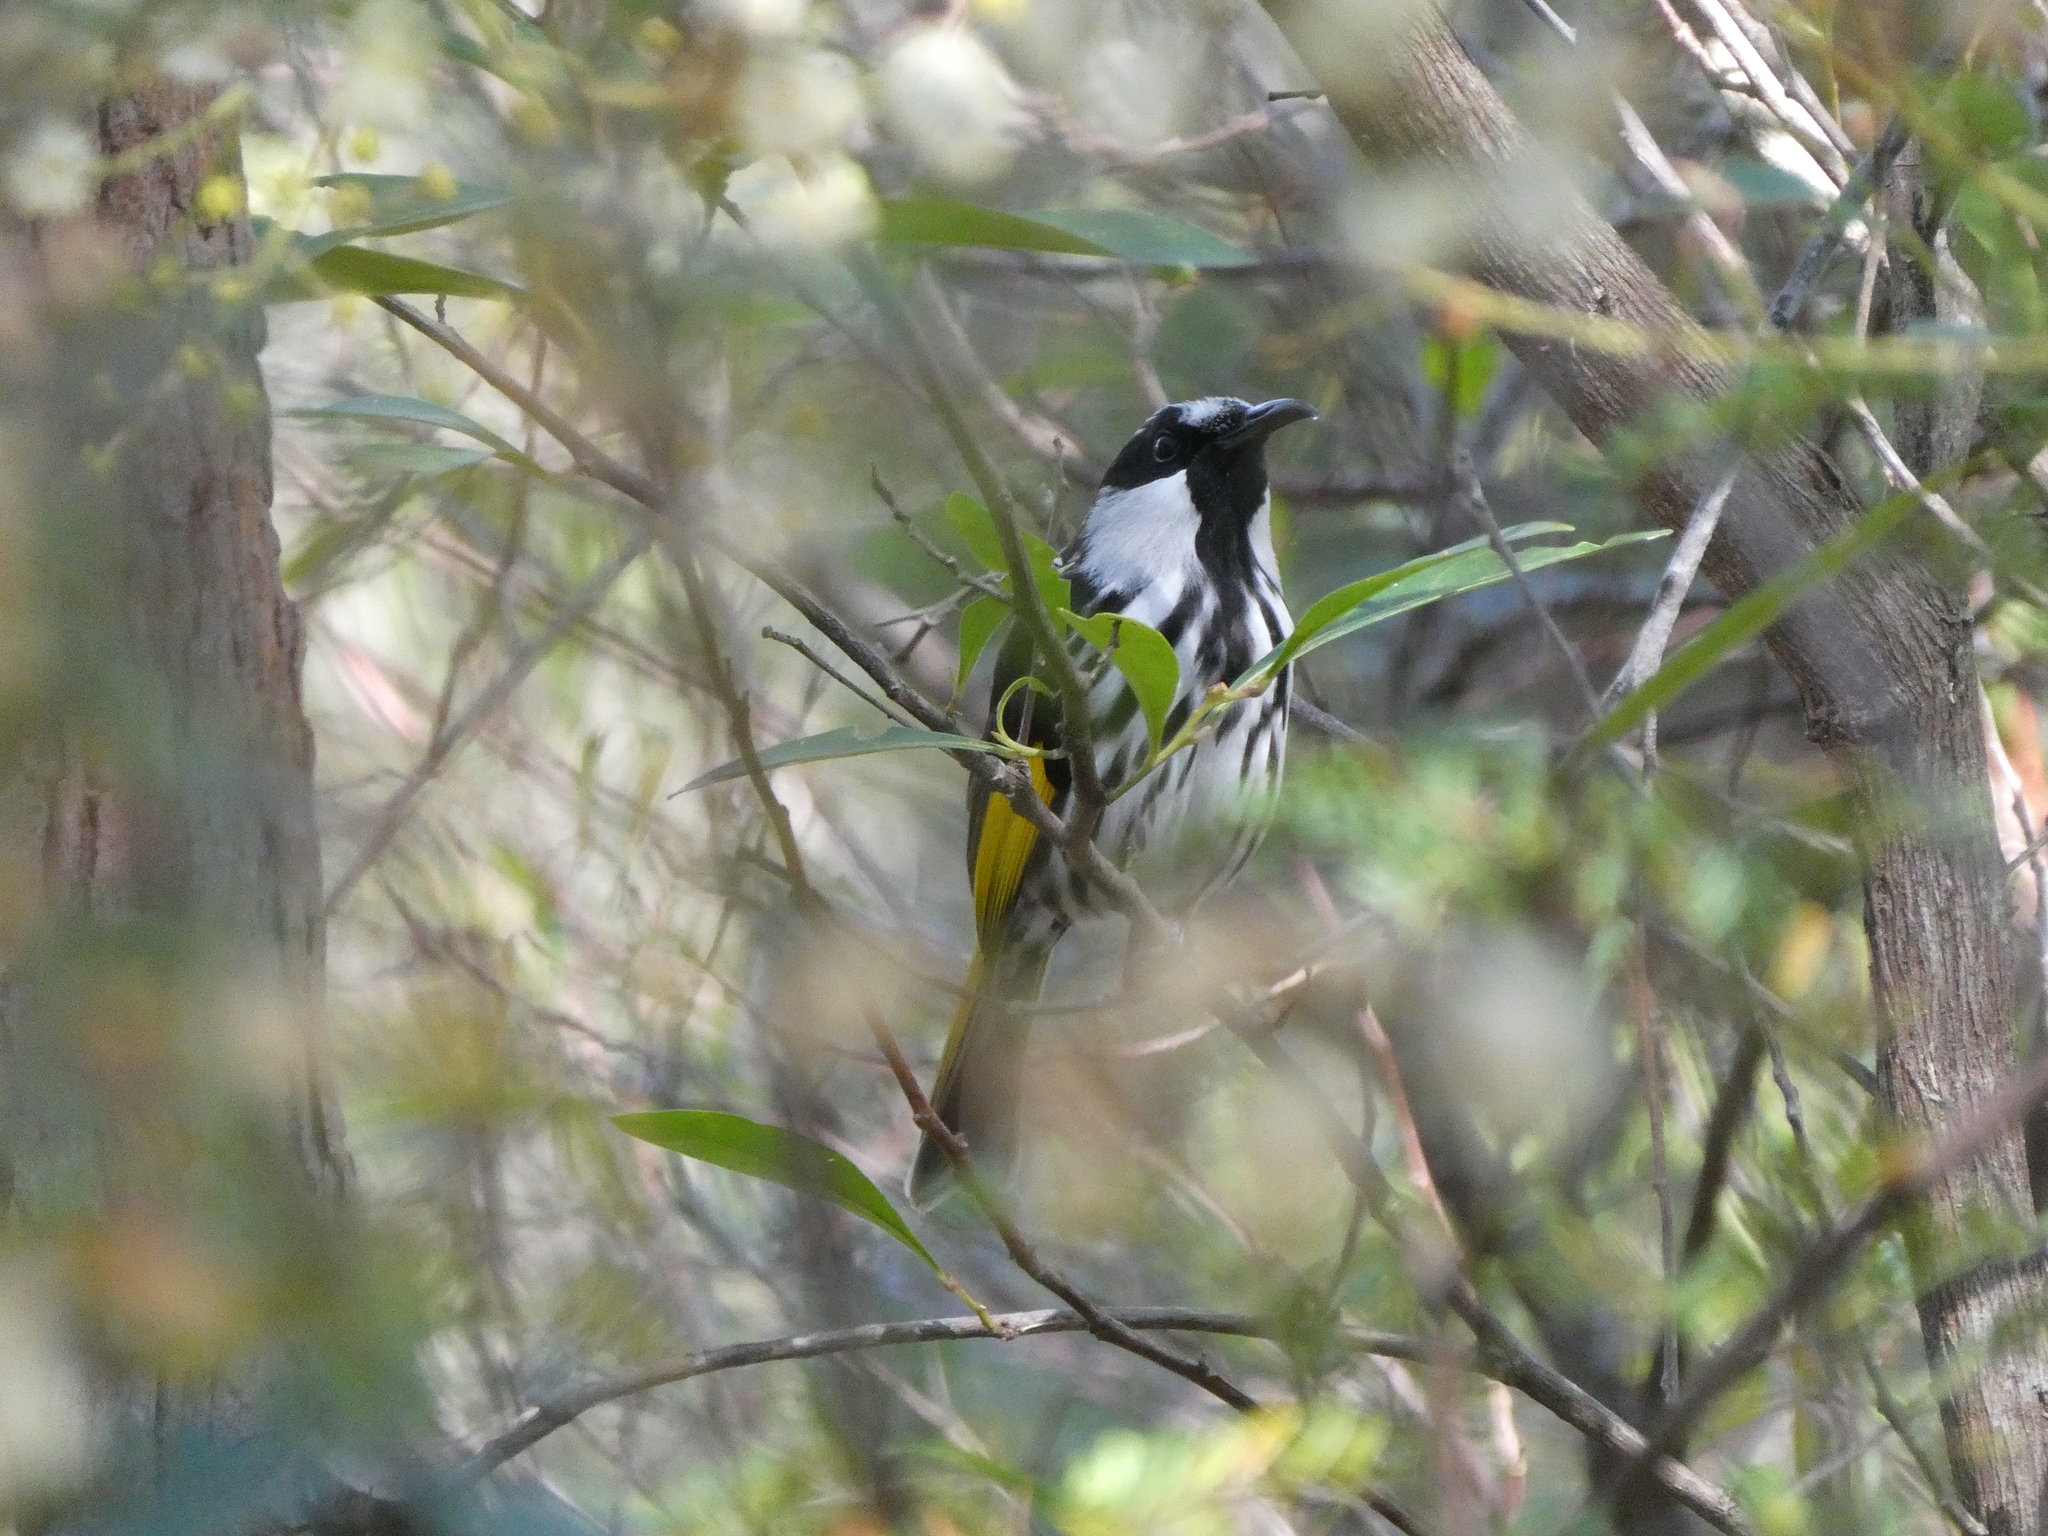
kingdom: Animalia
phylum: Chordata
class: Aves
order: Passeriformes
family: Meliphagidae
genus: Phylidonyris
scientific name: Phylidonyris niger
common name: White-cheeked honeyeater
